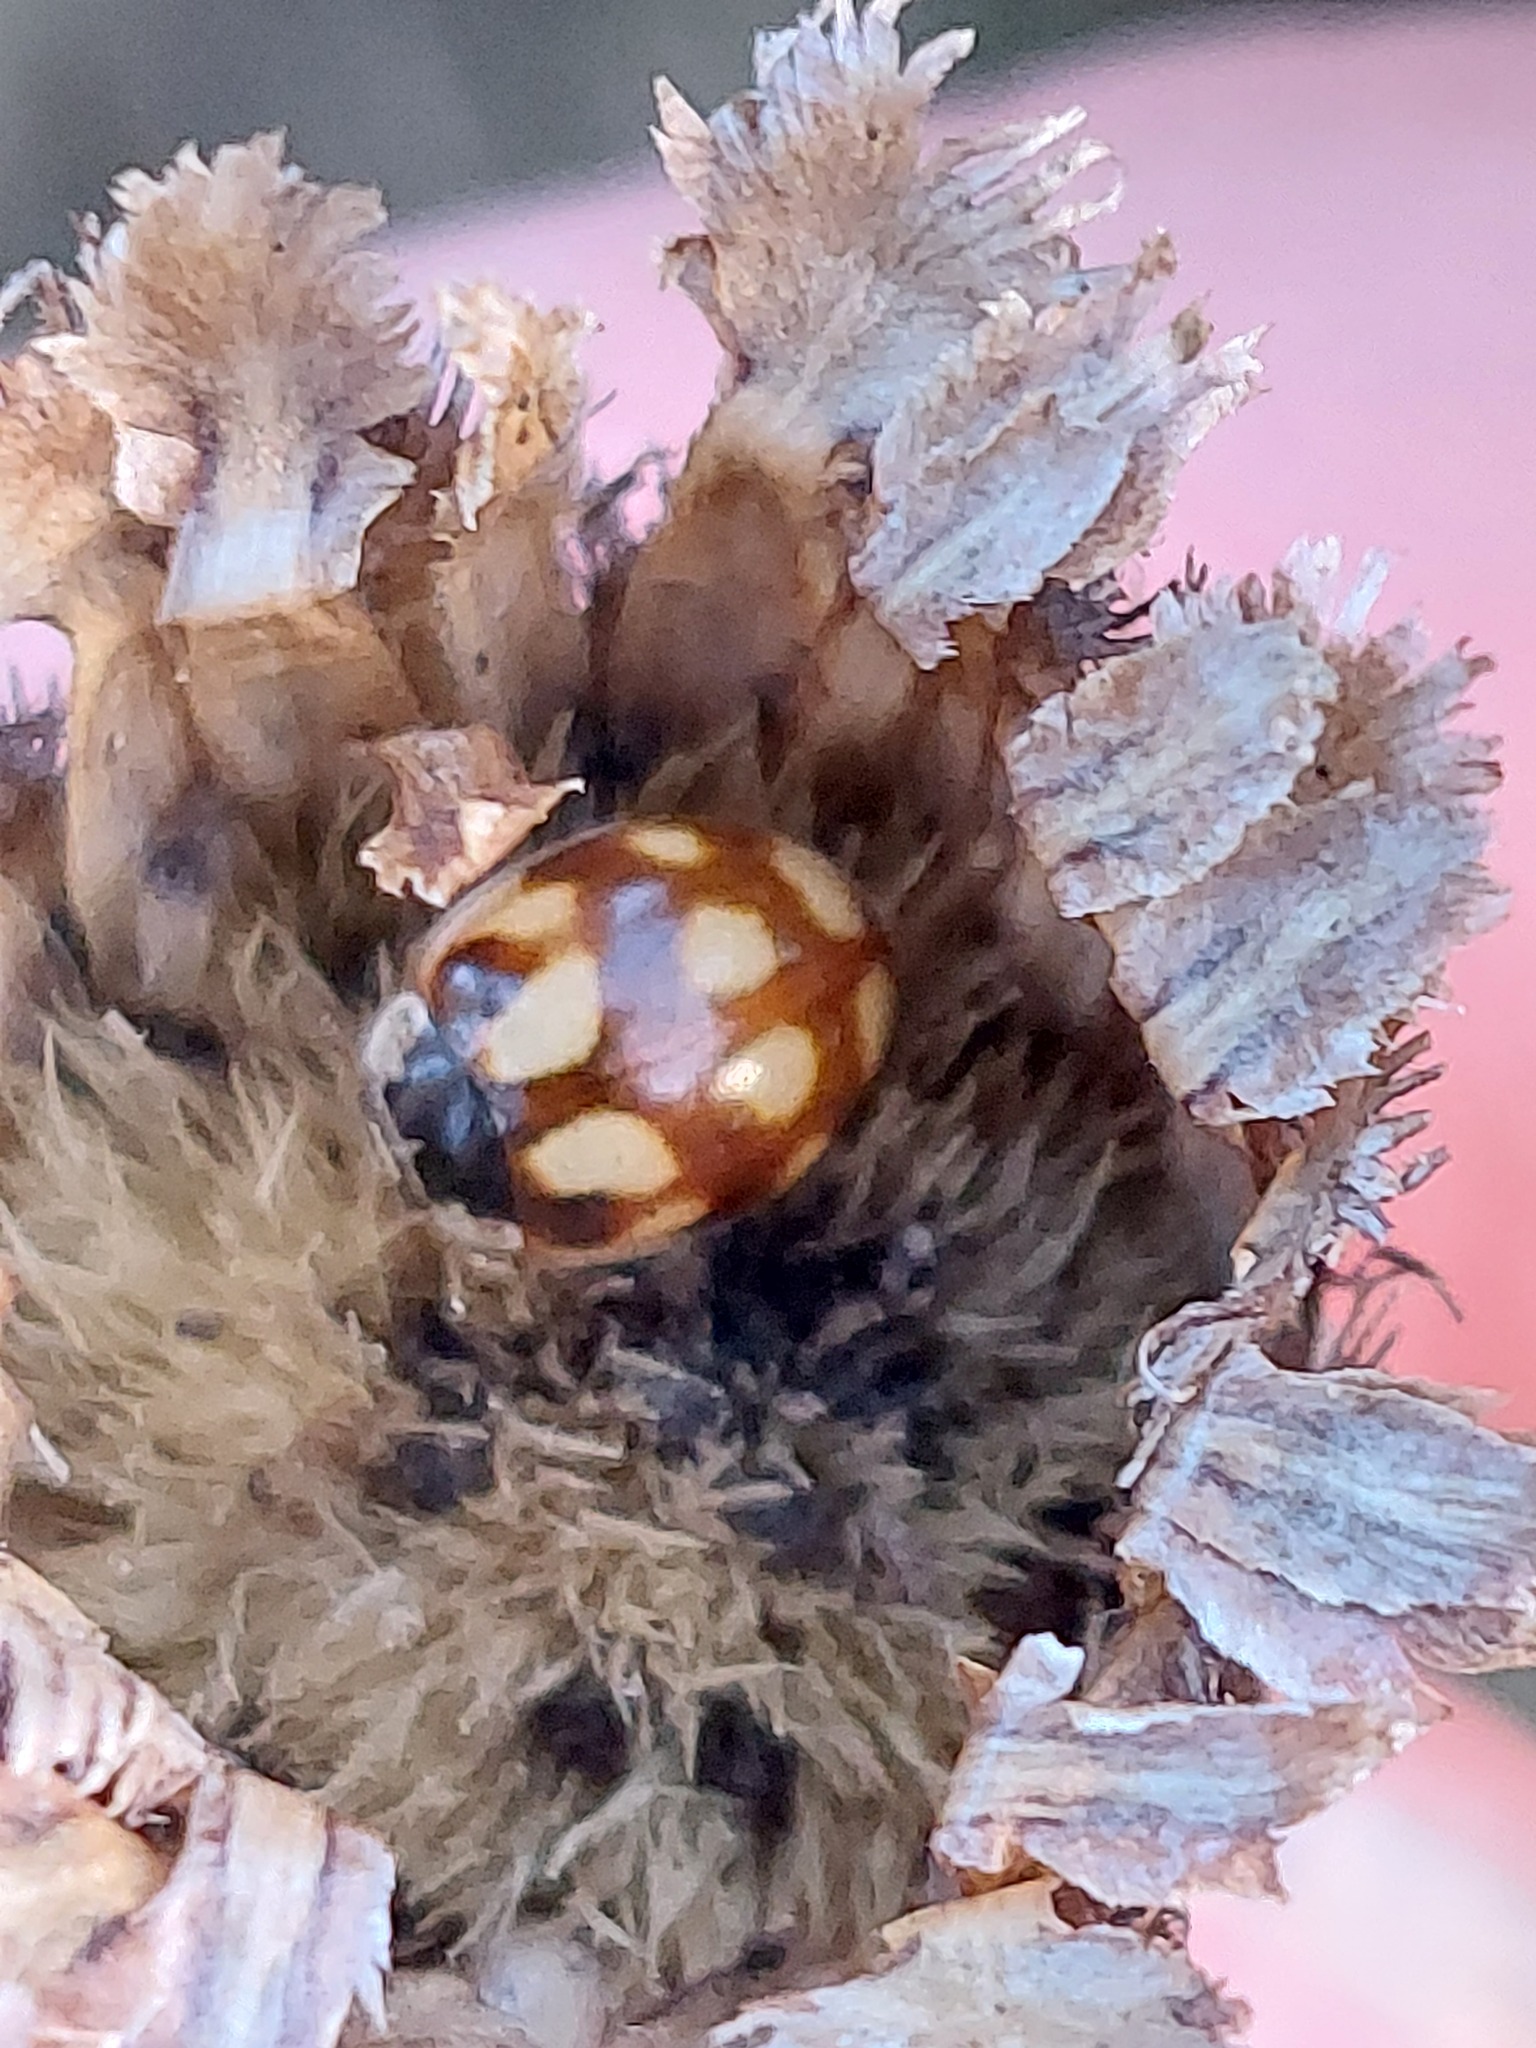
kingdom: Animalia
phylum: Arthropoda
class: Insecta
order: Coleoptera
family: Coccinellidae
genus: Adalia
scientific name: Adalia decempunctata
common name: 10-spot ladybird
